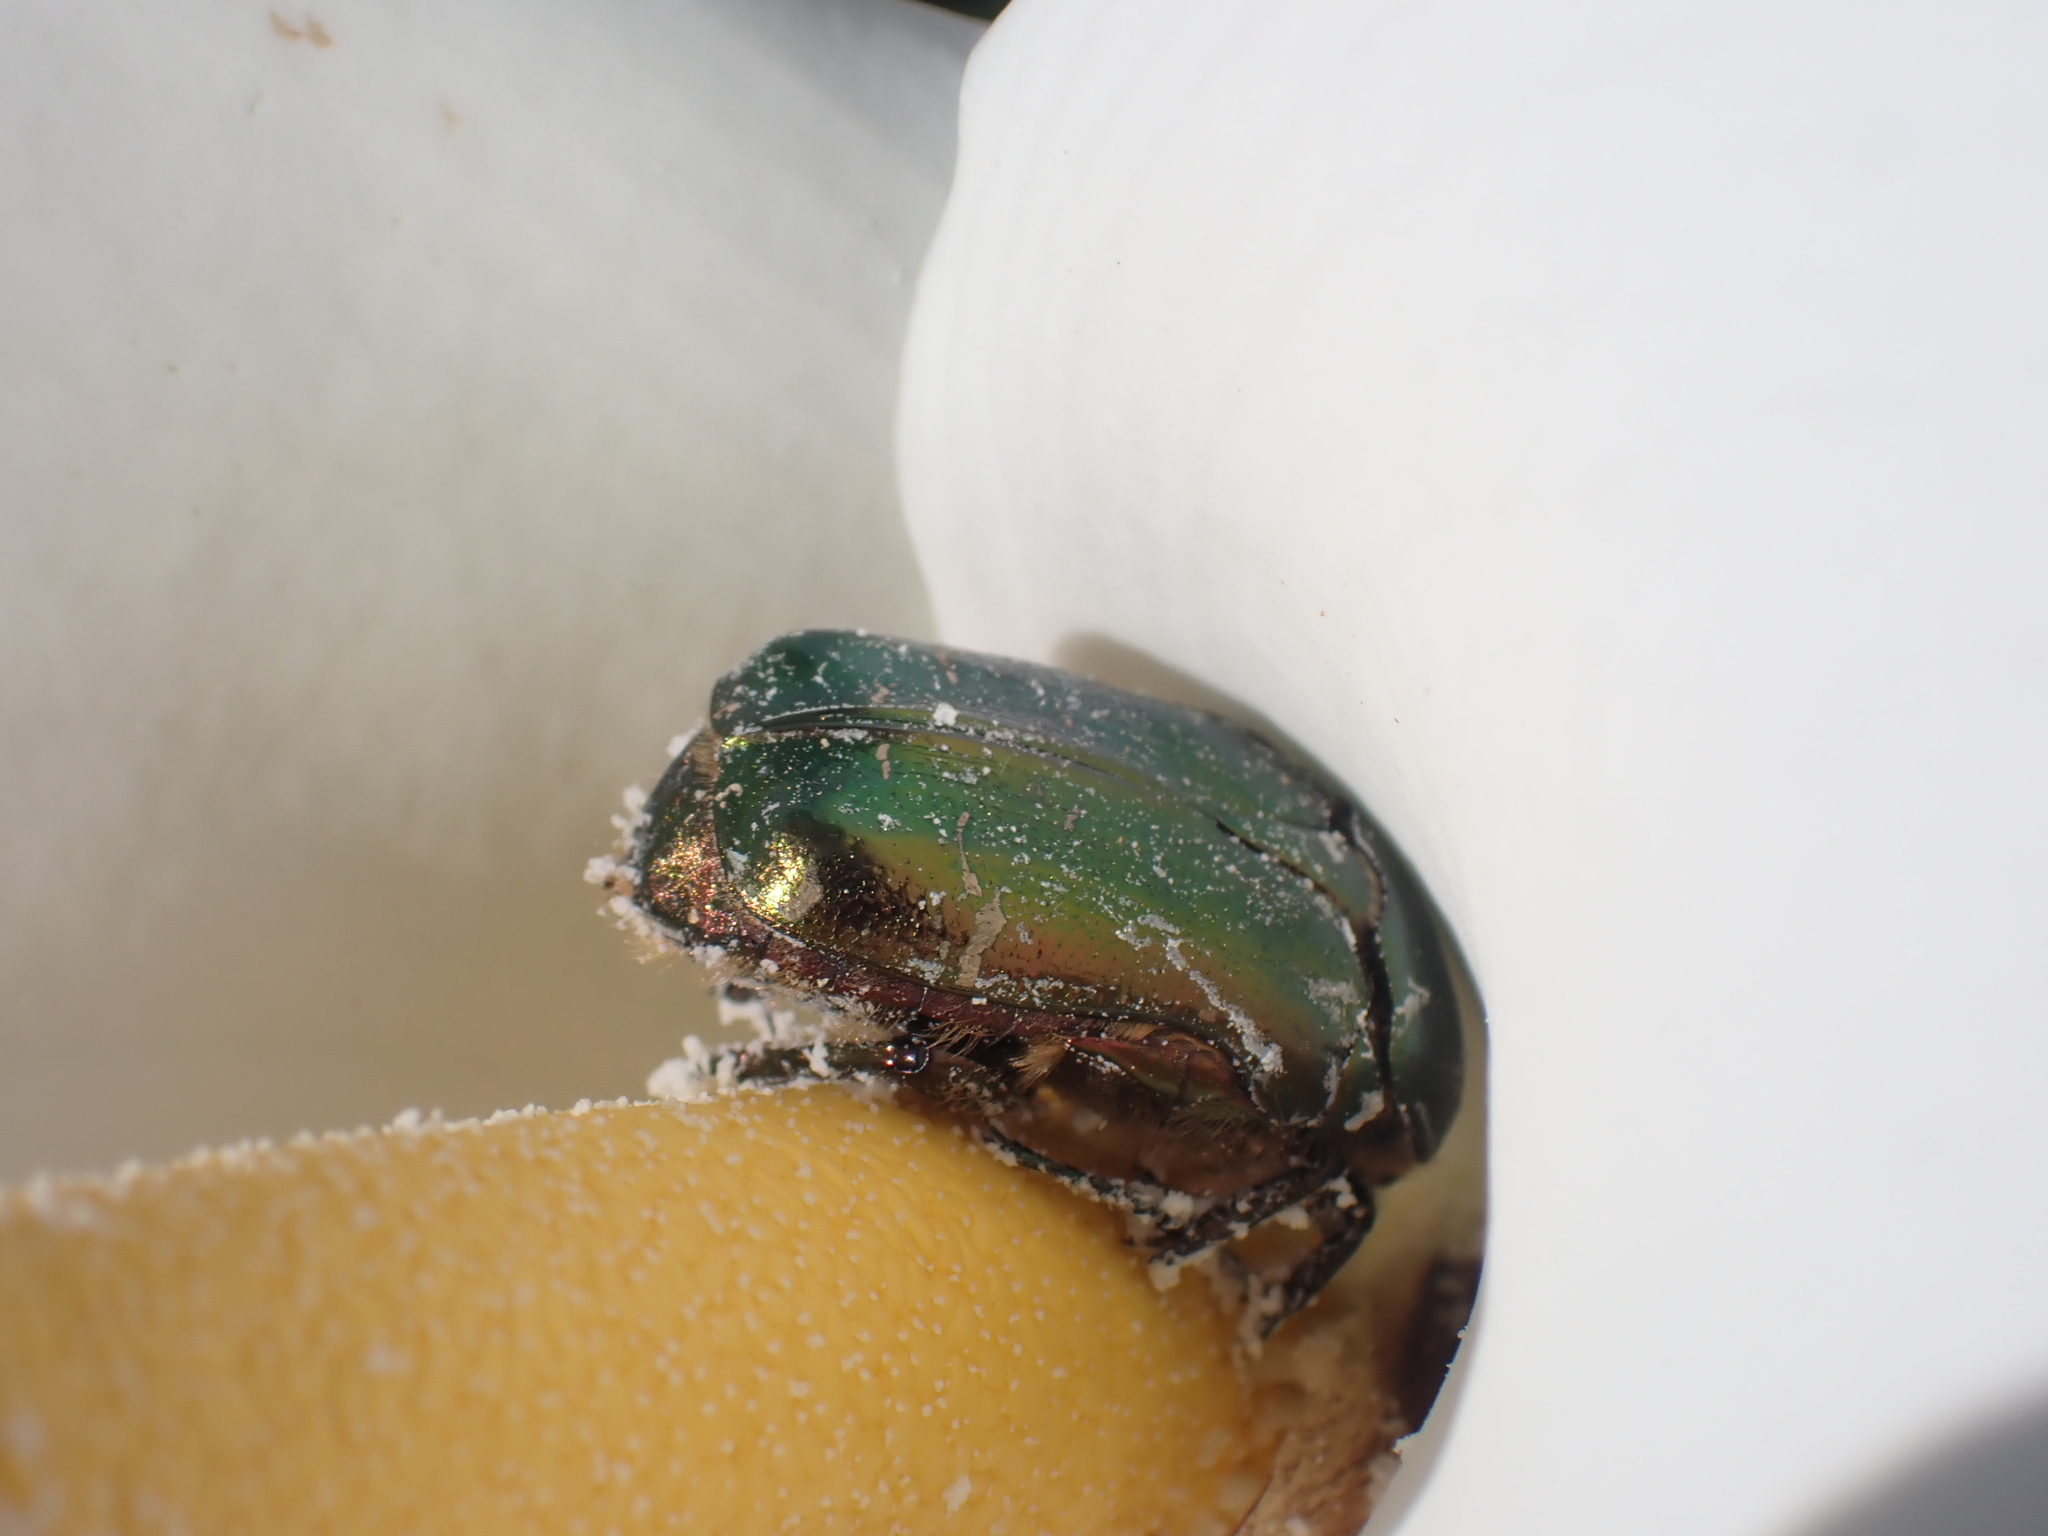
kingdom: Animalia
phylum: Arthropoda
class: Insecta
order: Coleoptera
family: Scarabaeidae
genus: Cetonia
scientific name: Cetonia aurata
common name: Rose chafer
